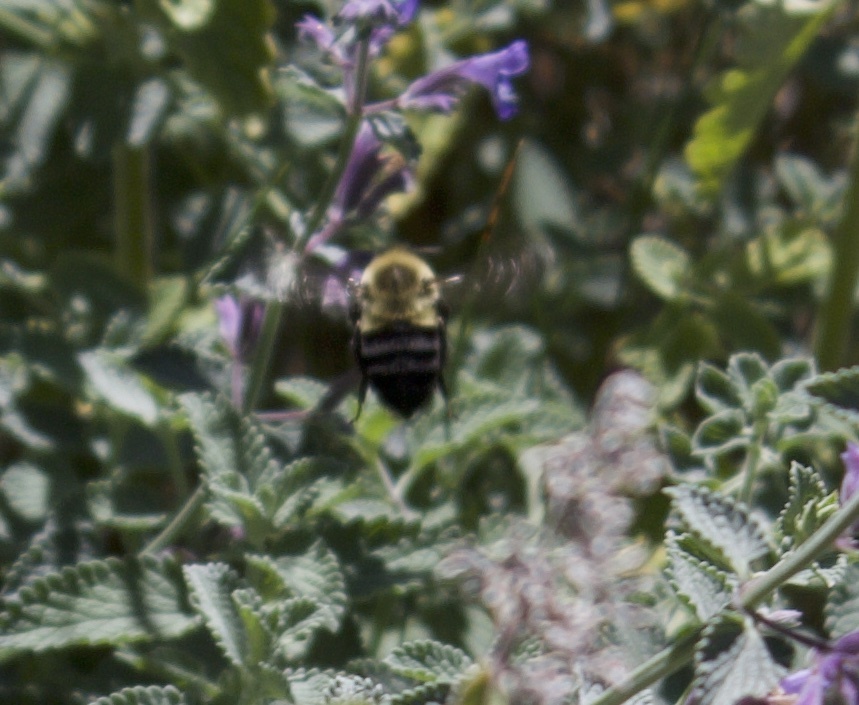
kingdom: Animalia
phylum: Arthropoda
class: Insecta
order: Hymenoptera
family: Apidae
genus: Bombus
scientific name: Bombus impatiens
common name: Common eastern bumble bee
